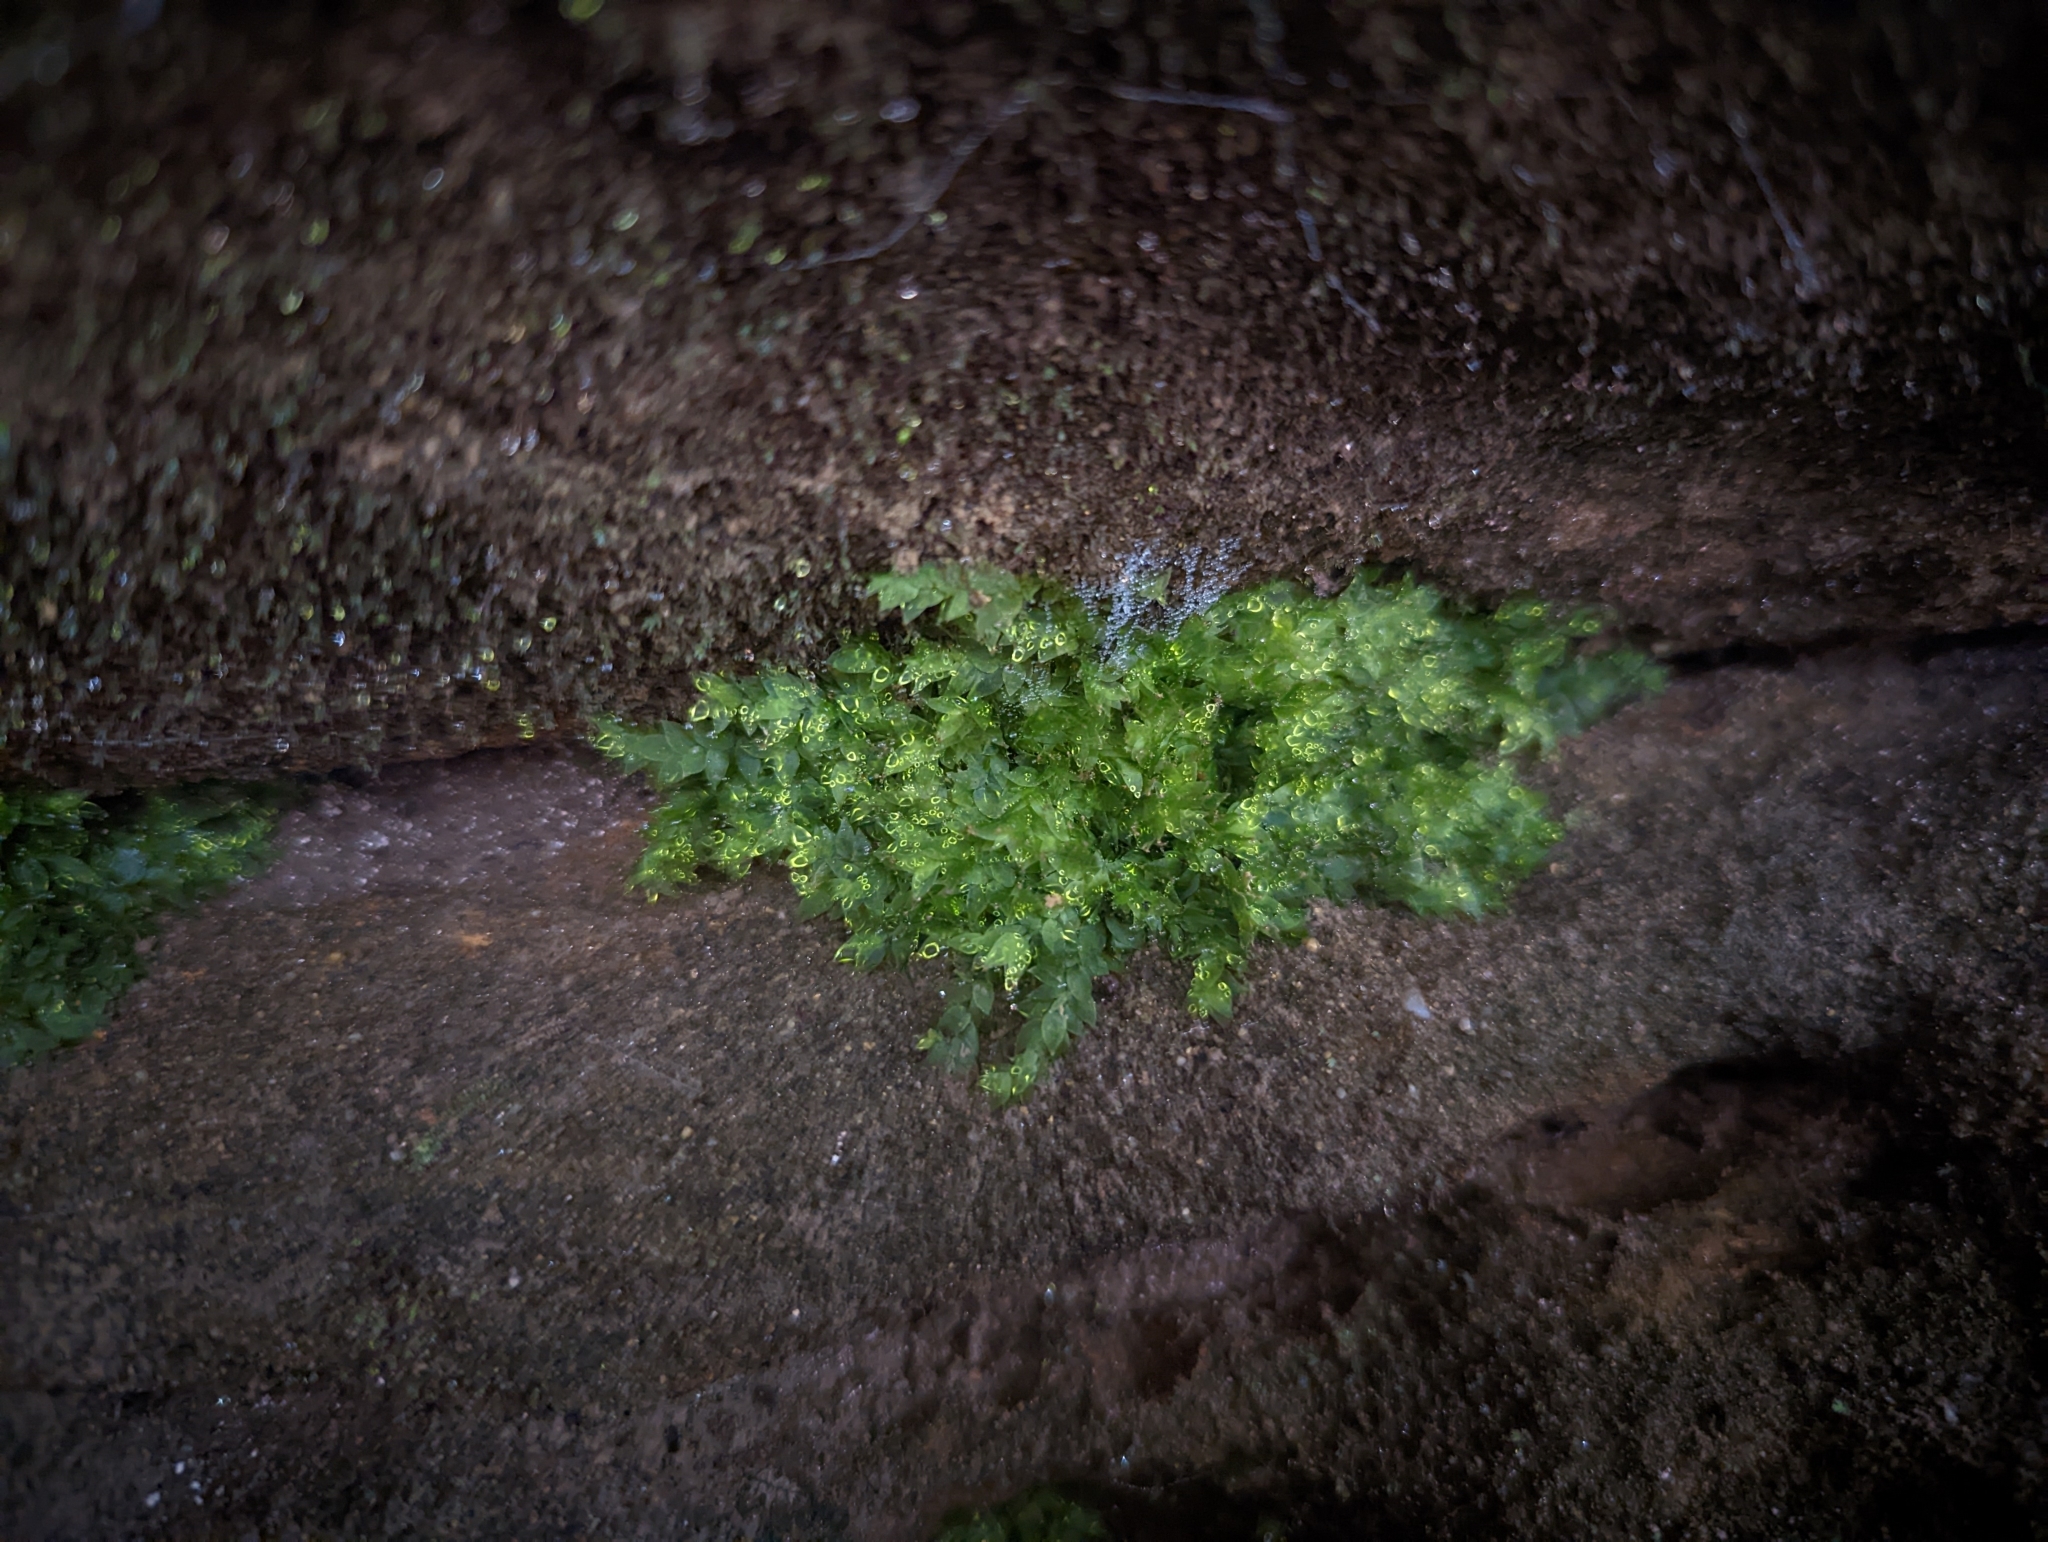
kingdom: Plantae
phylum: Bryophyta
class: Bryopsida
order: Hookeriales
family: Hookeriaceae
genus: Hookeria
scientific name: Hookeria acutifolia
